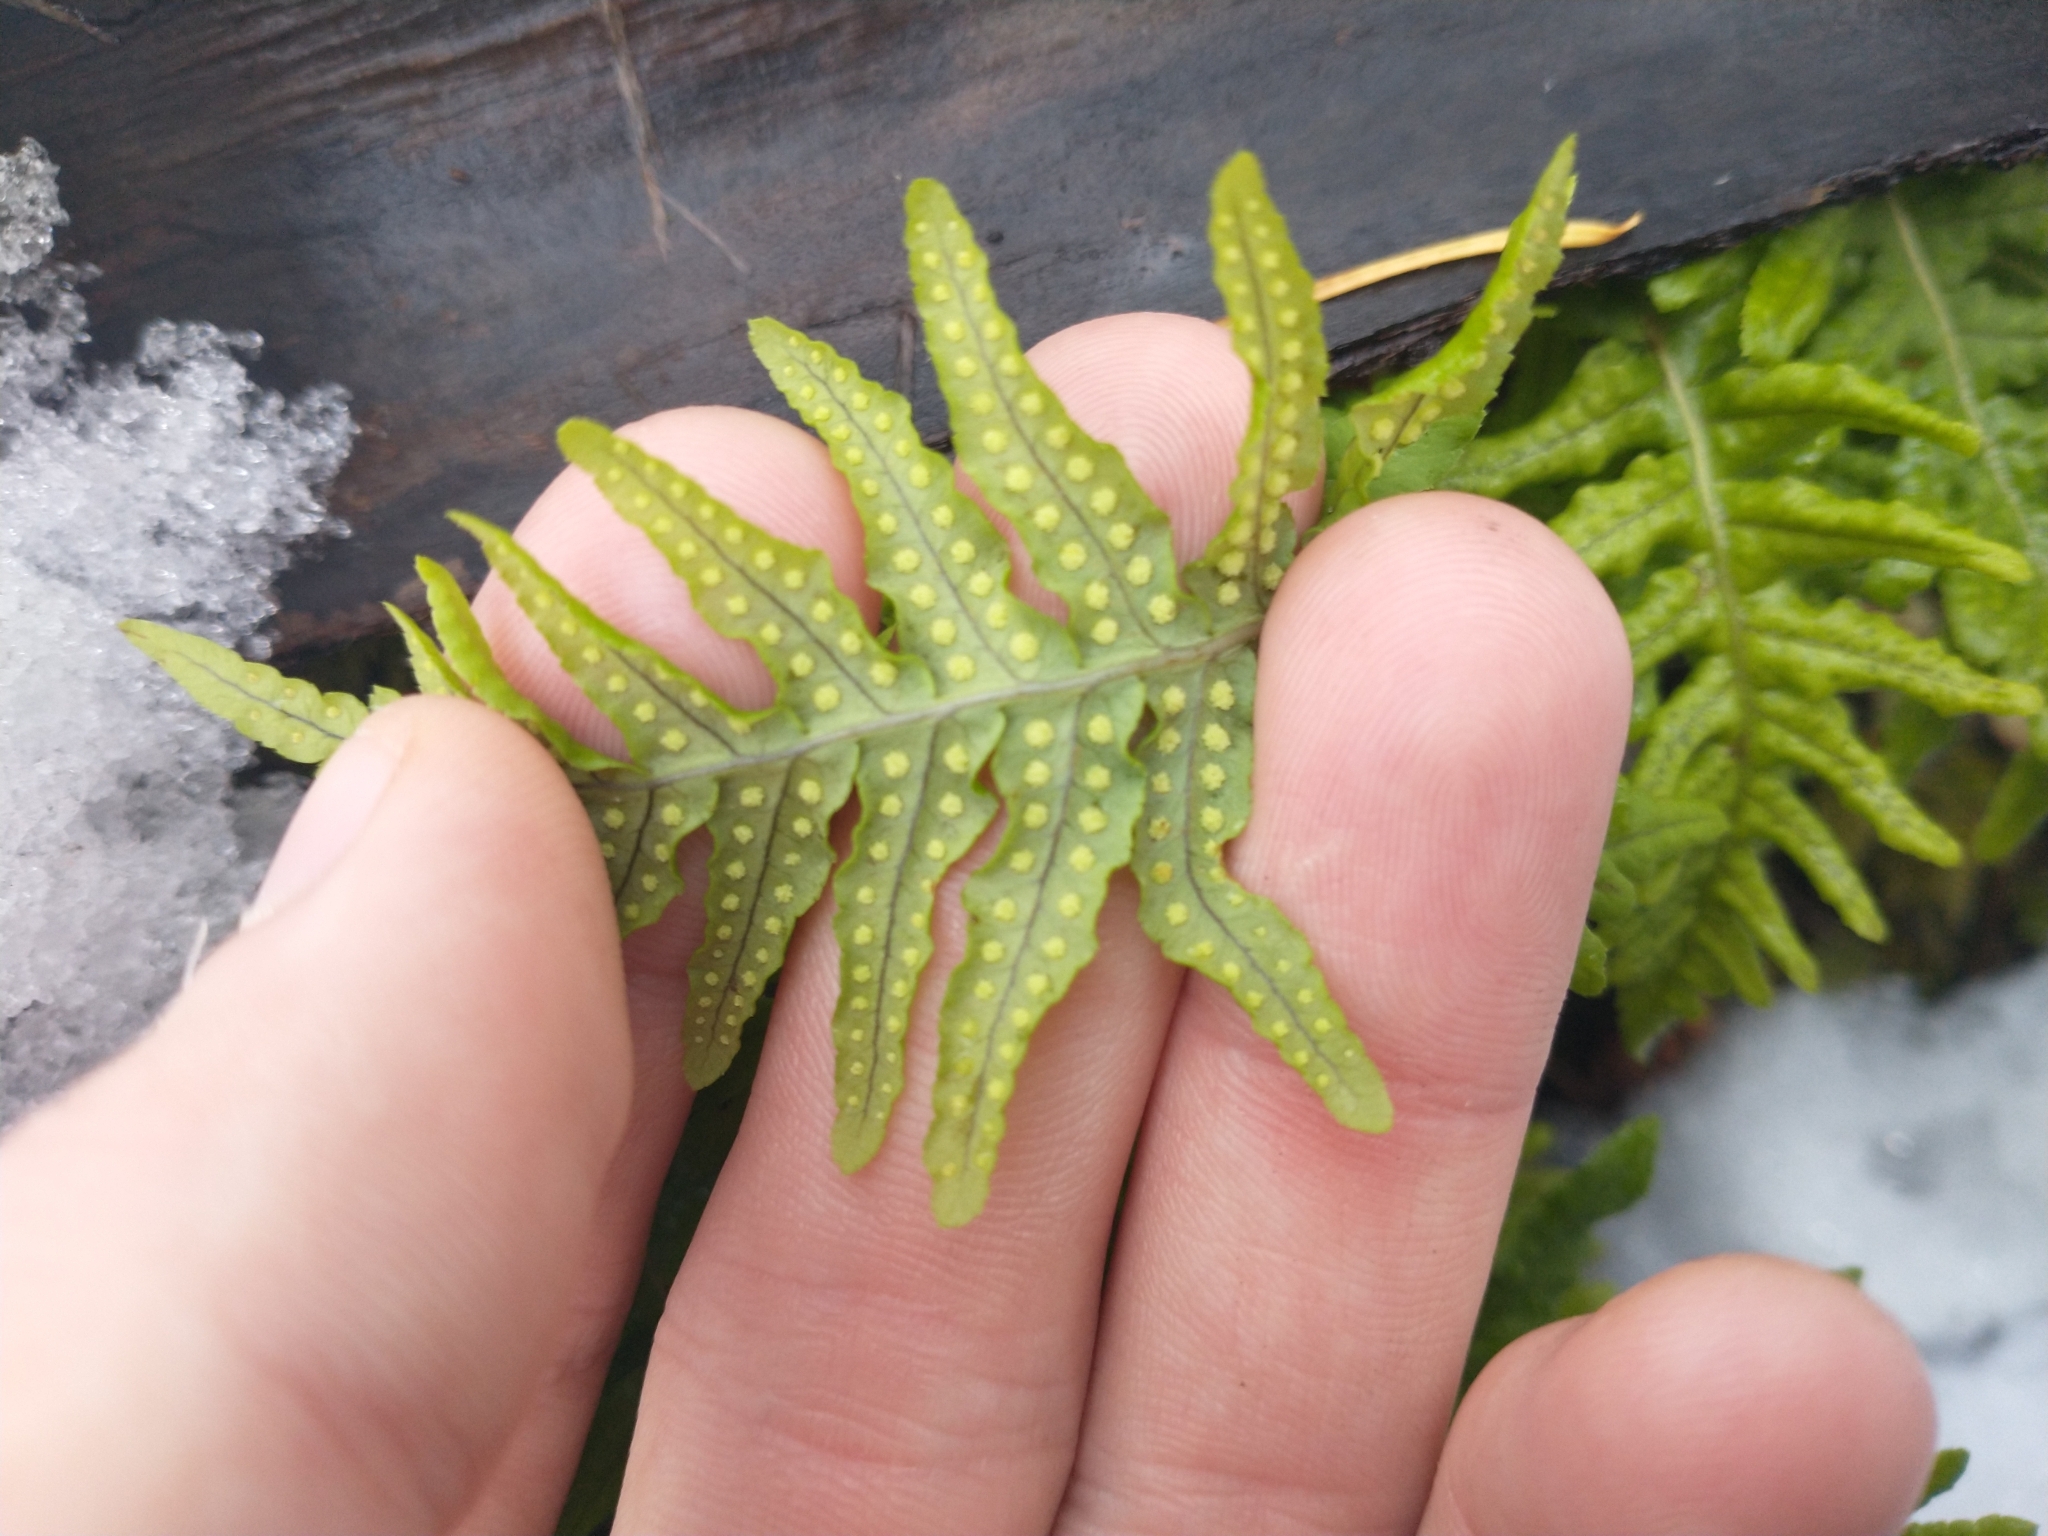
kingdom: Plantae
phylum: Tracheophyta
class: Polypodiopsida
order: Polypodiales
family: Polypodiaceae
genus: Polypodium
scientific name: Polypodium glycyrrhiza
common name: Licorice fern
